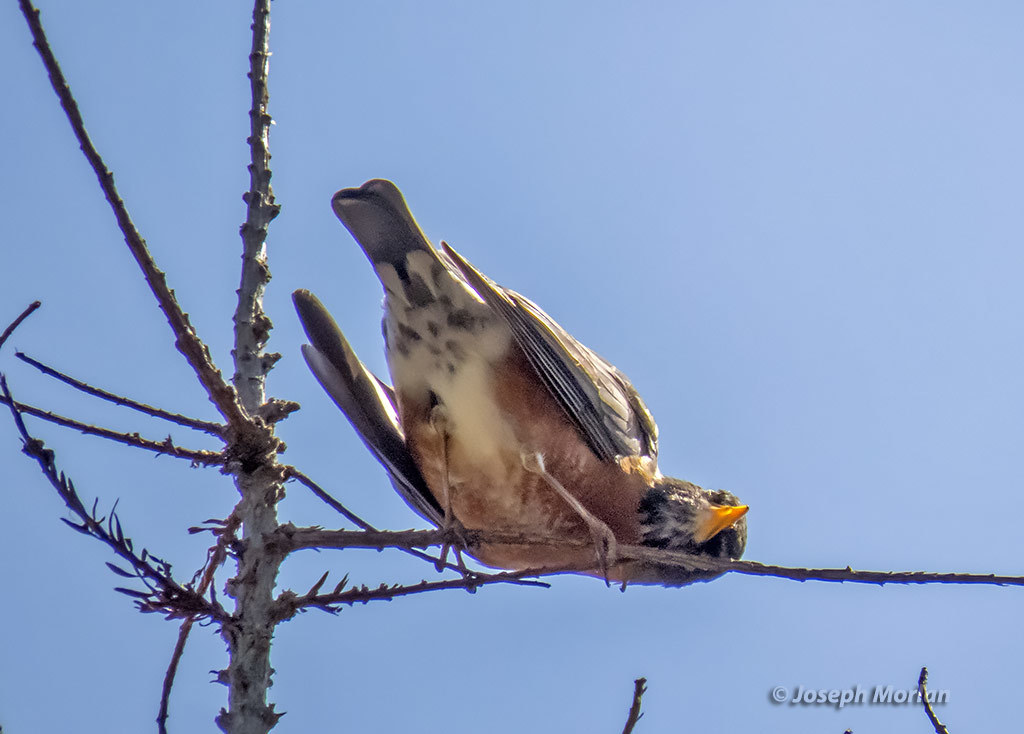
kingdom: Animalia
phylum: Chordata
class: Aves
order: Passeriformes
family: Turdidae
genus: Turdus
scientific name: Turdus migratorius
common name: American robin
